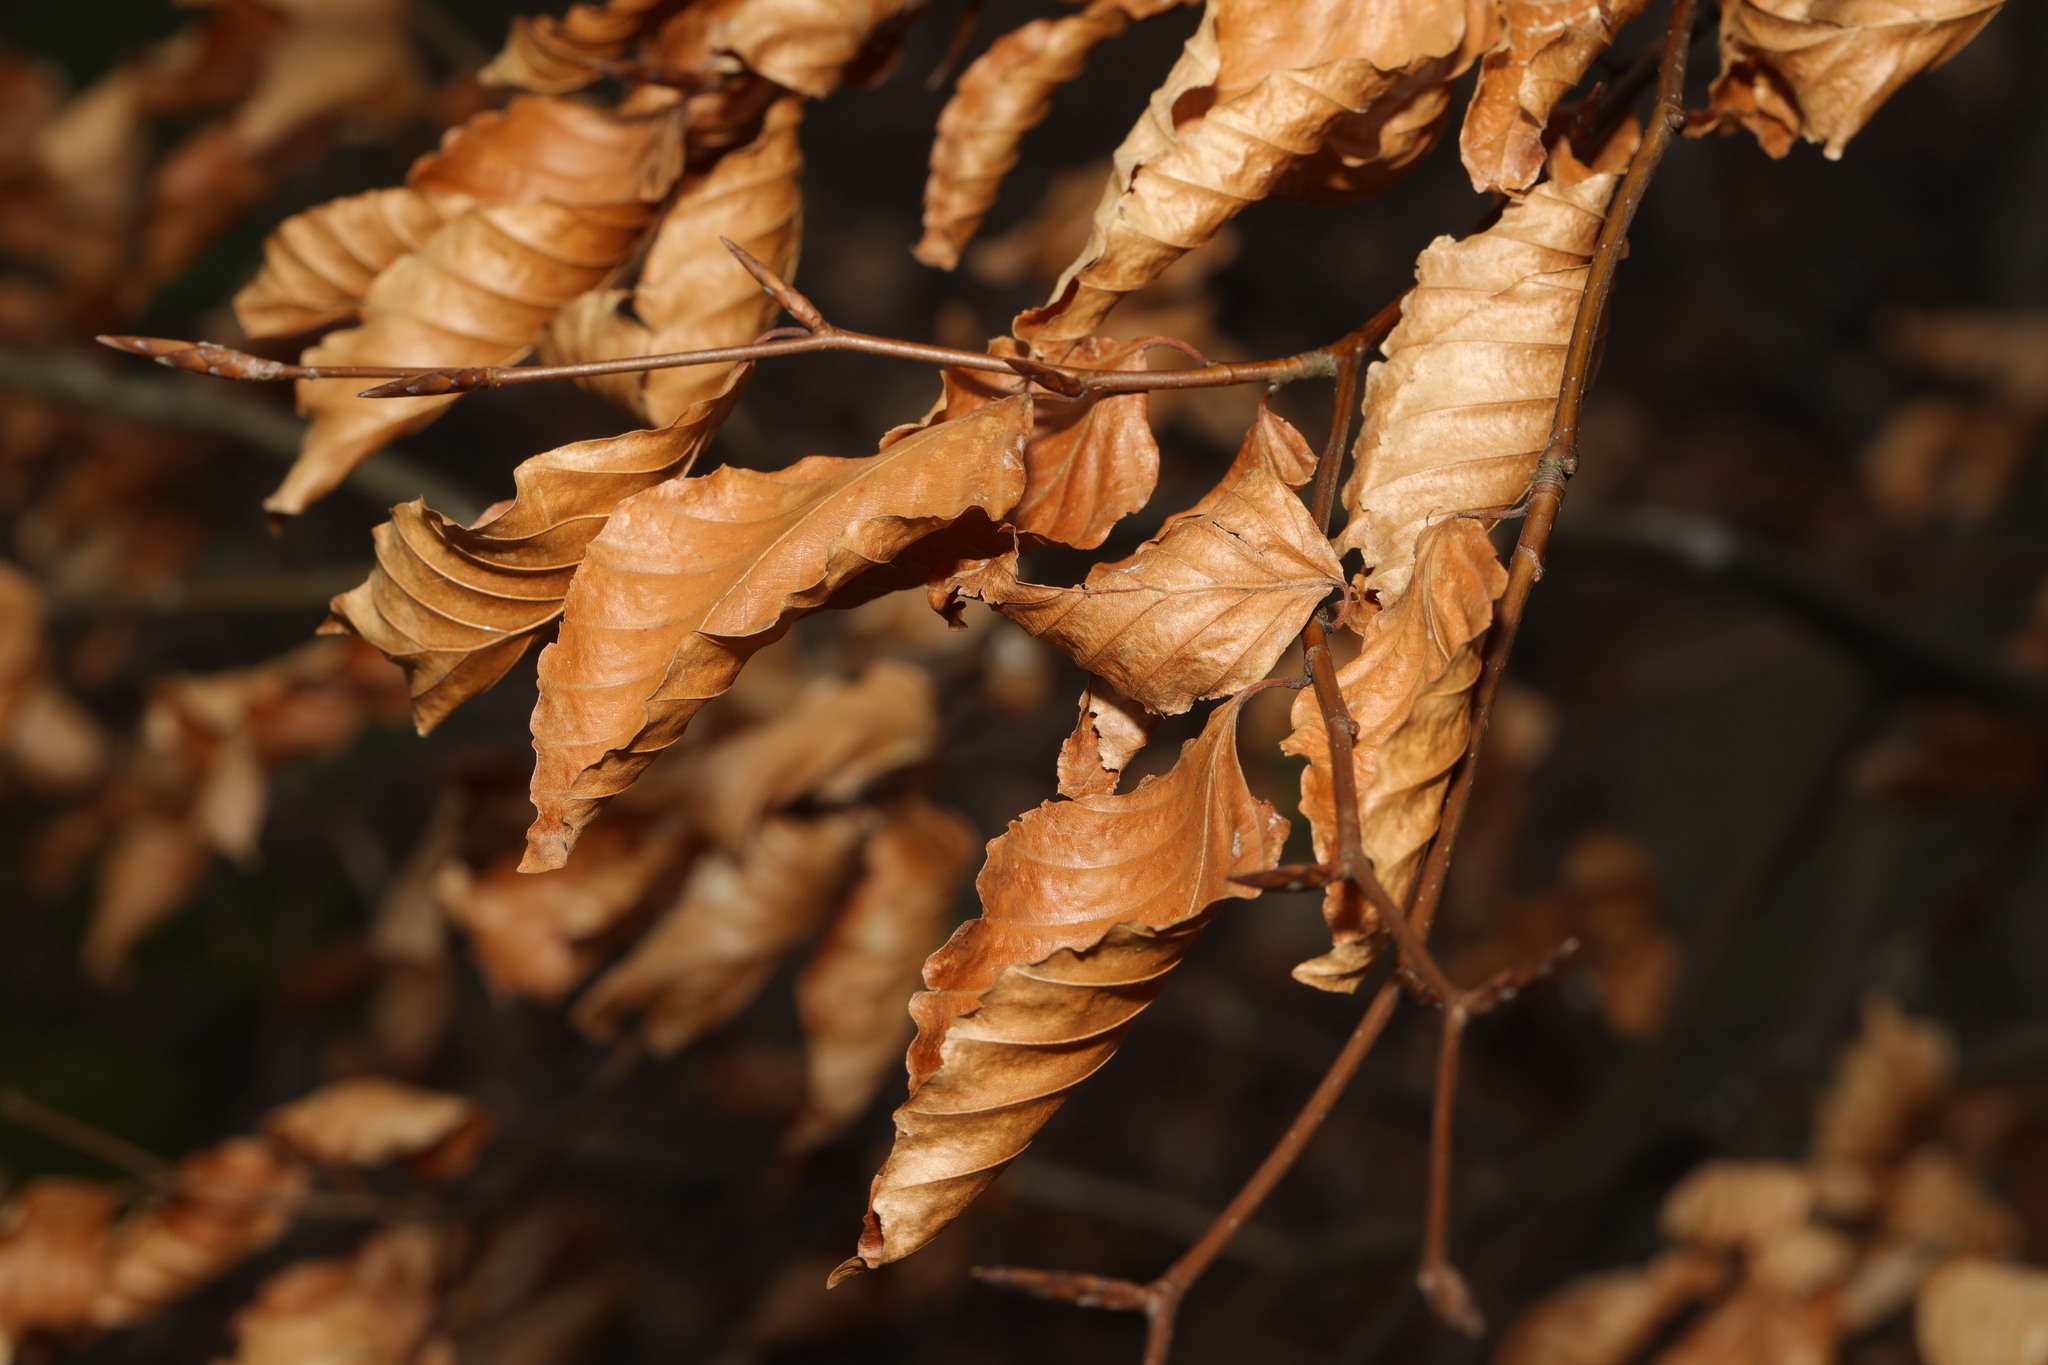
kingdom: Plantae
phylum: Tracheophyta
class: Magnoliopsida
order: Fagales
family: Fagaceae
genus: Fagus
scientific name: Fagus sylvatica
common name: Beech
